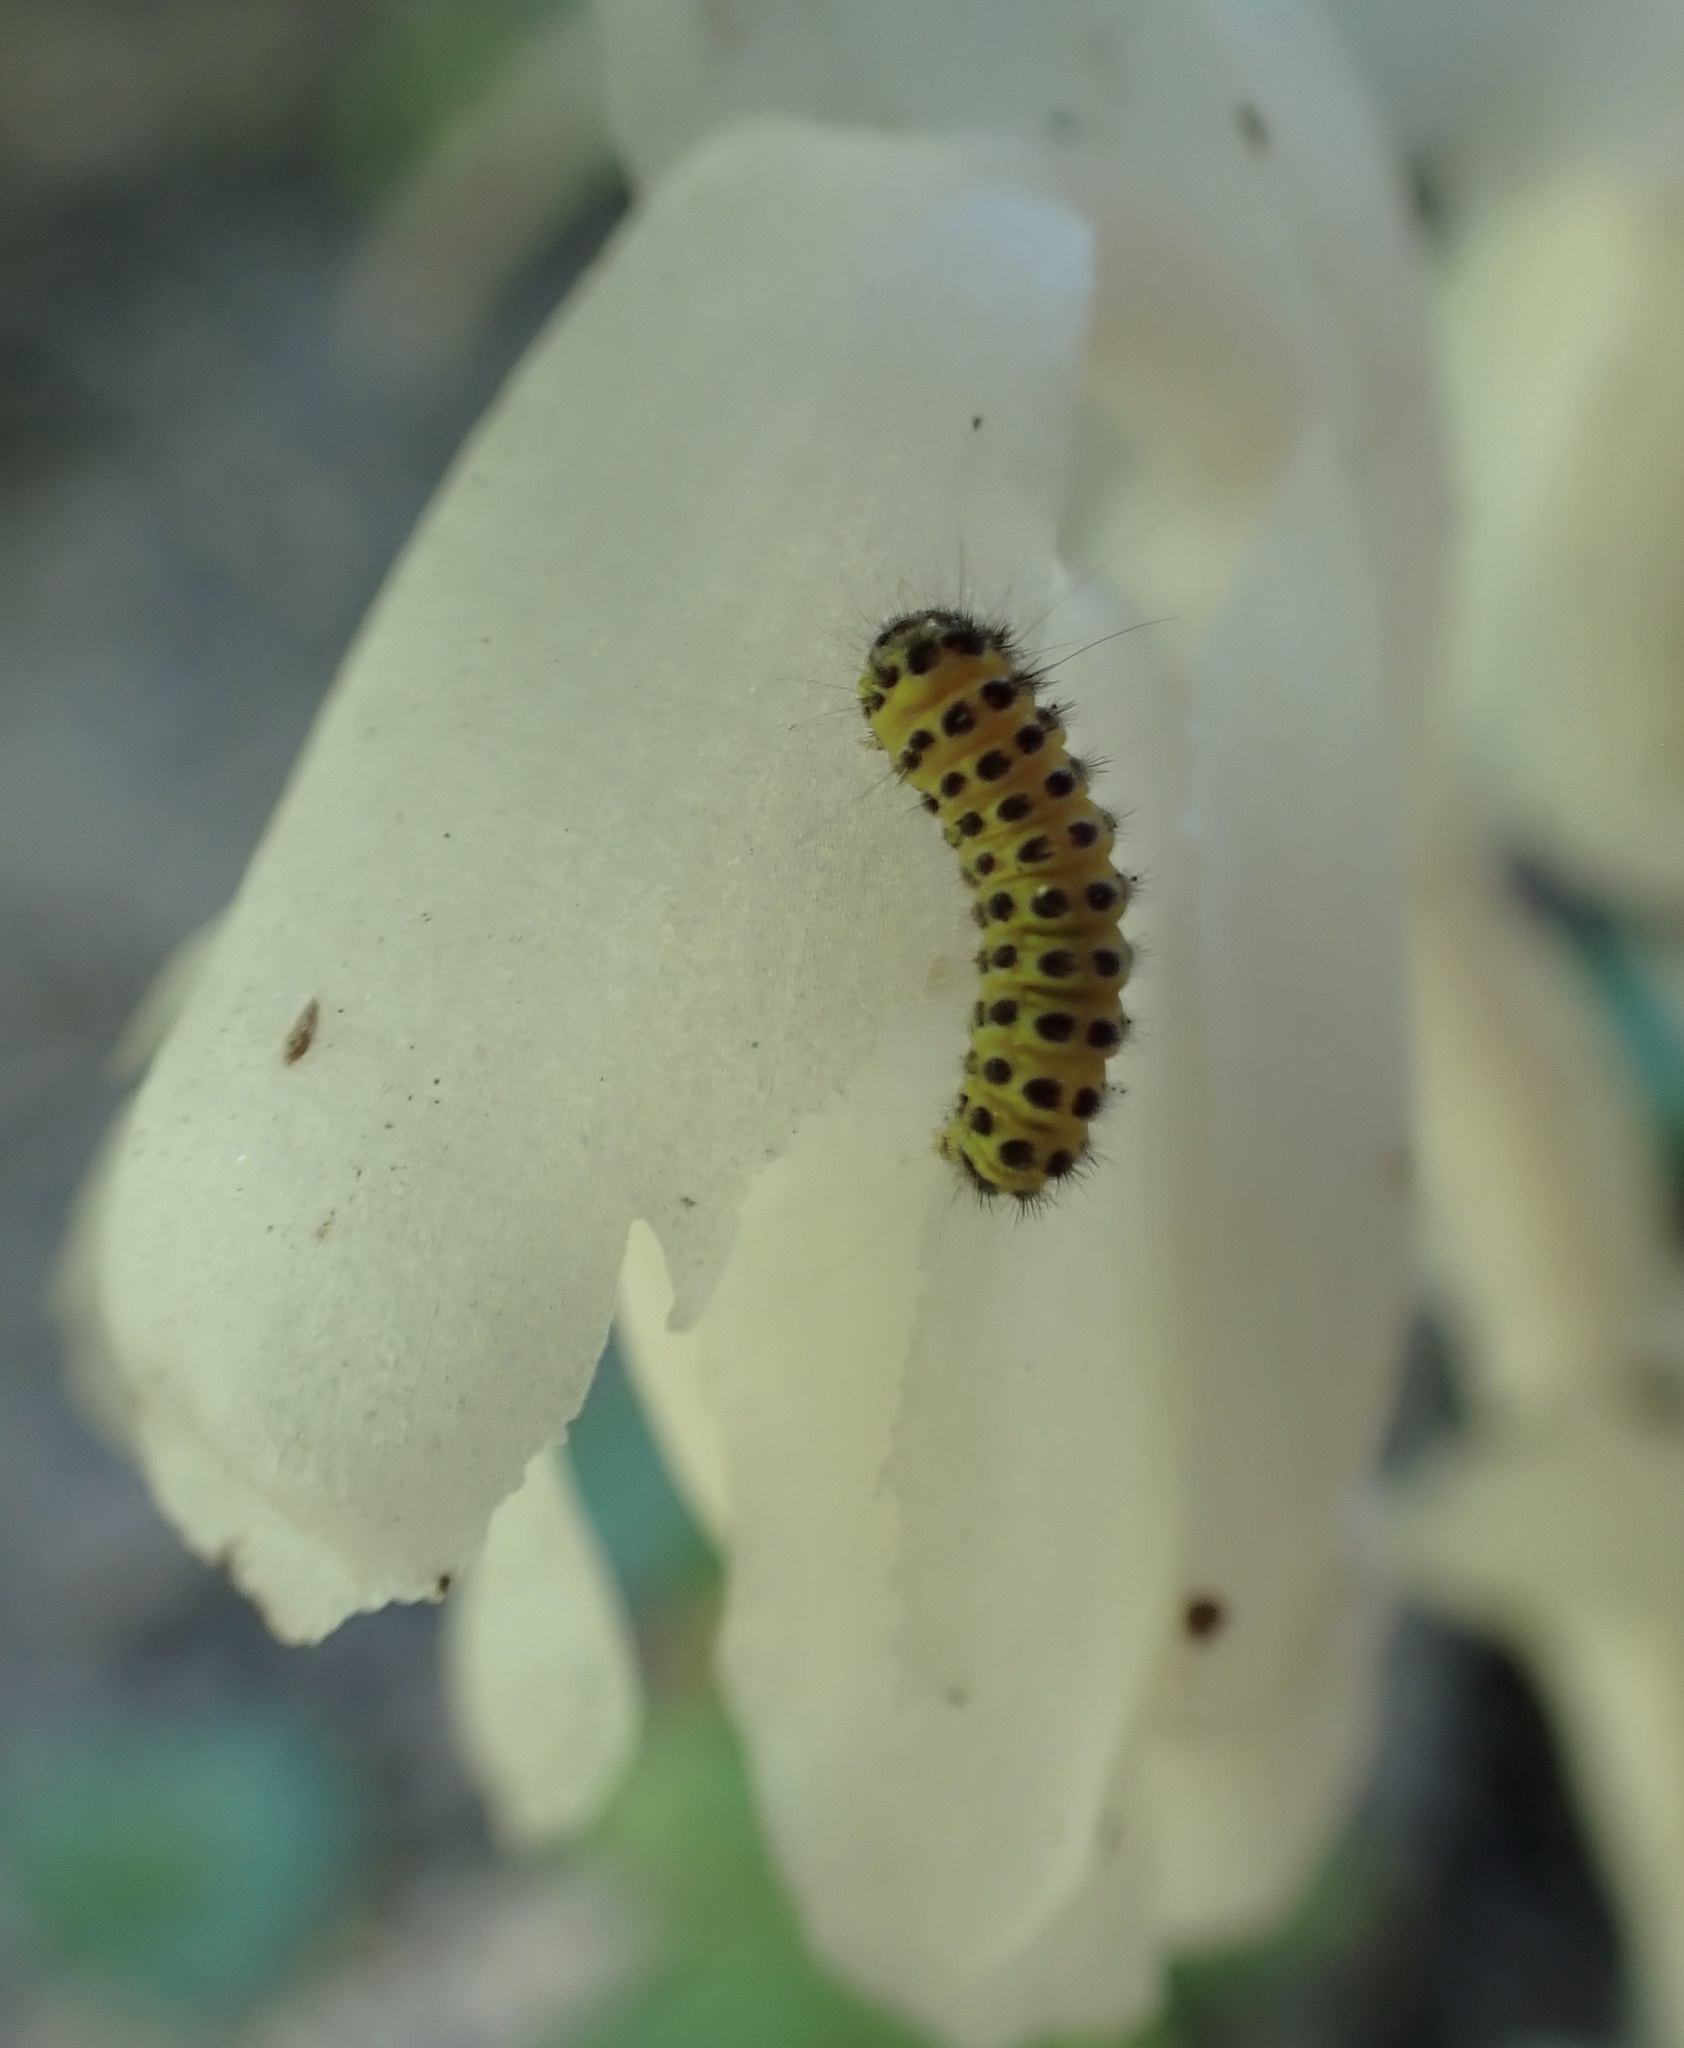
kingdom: Animalia
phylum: Arthropoda
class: Insecta
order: Lepidoptera
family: Zygaenidae
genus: Harrisina
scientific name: Harrisina americana
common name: Grapeleaf skeletonizer moth
